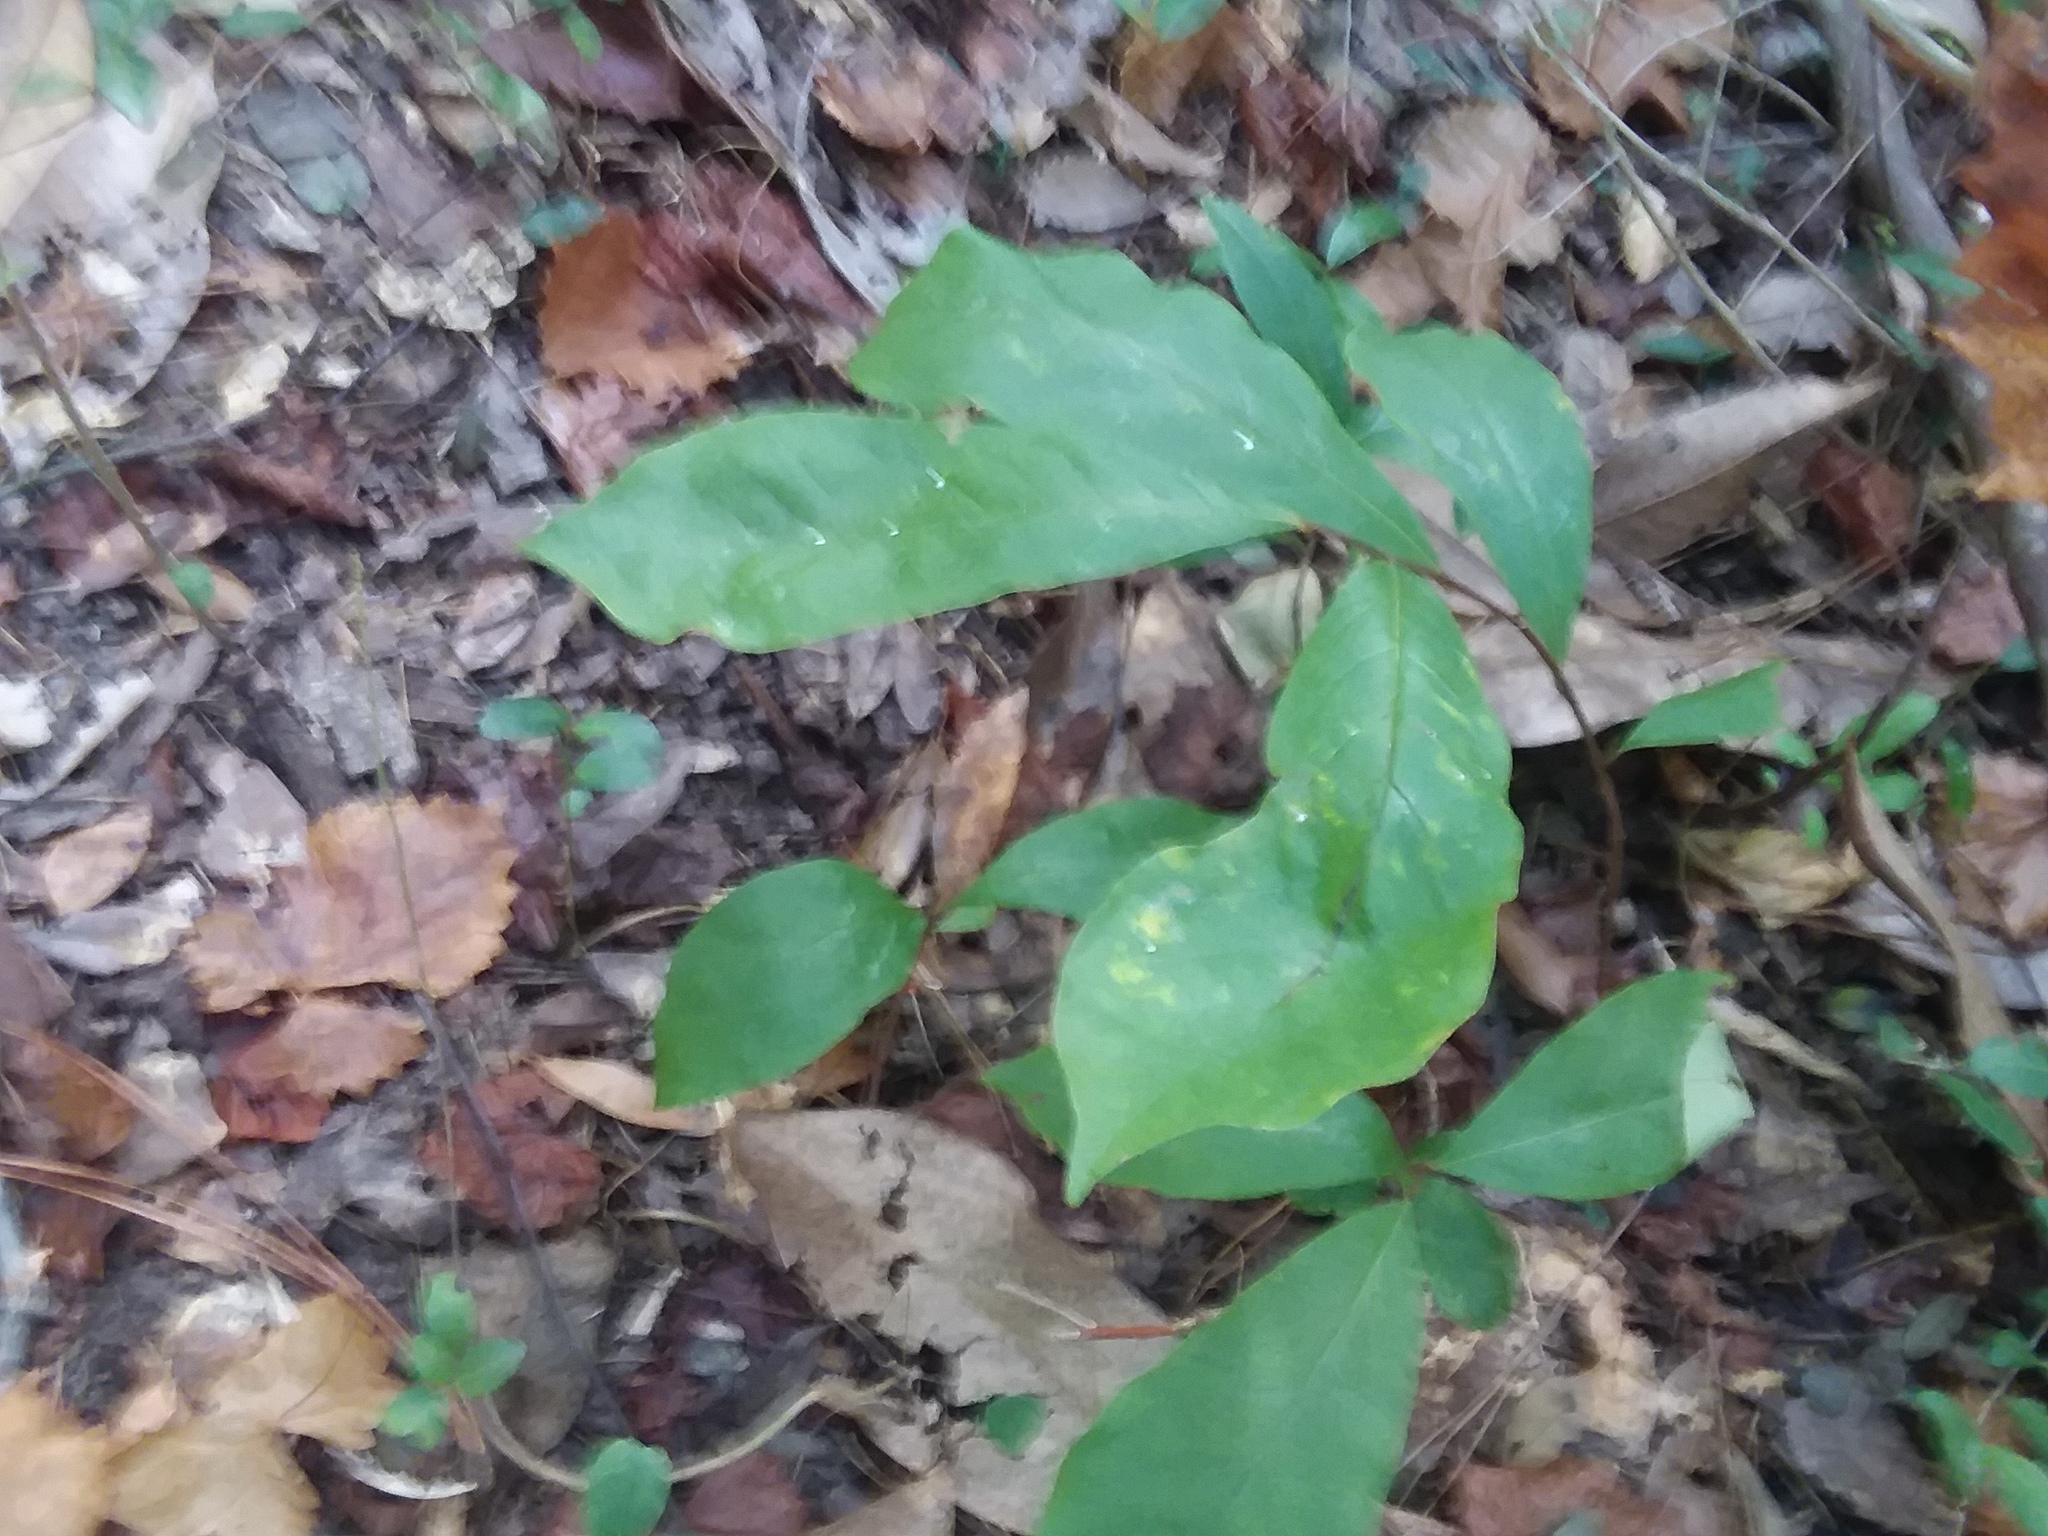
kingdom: Plantae
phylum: Tracheophyta
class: Magnoliopsida
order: Magnoliales
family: Annonaceae
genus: Asimina
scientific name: Asimina parviflora
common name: Dwarf pawpaw
